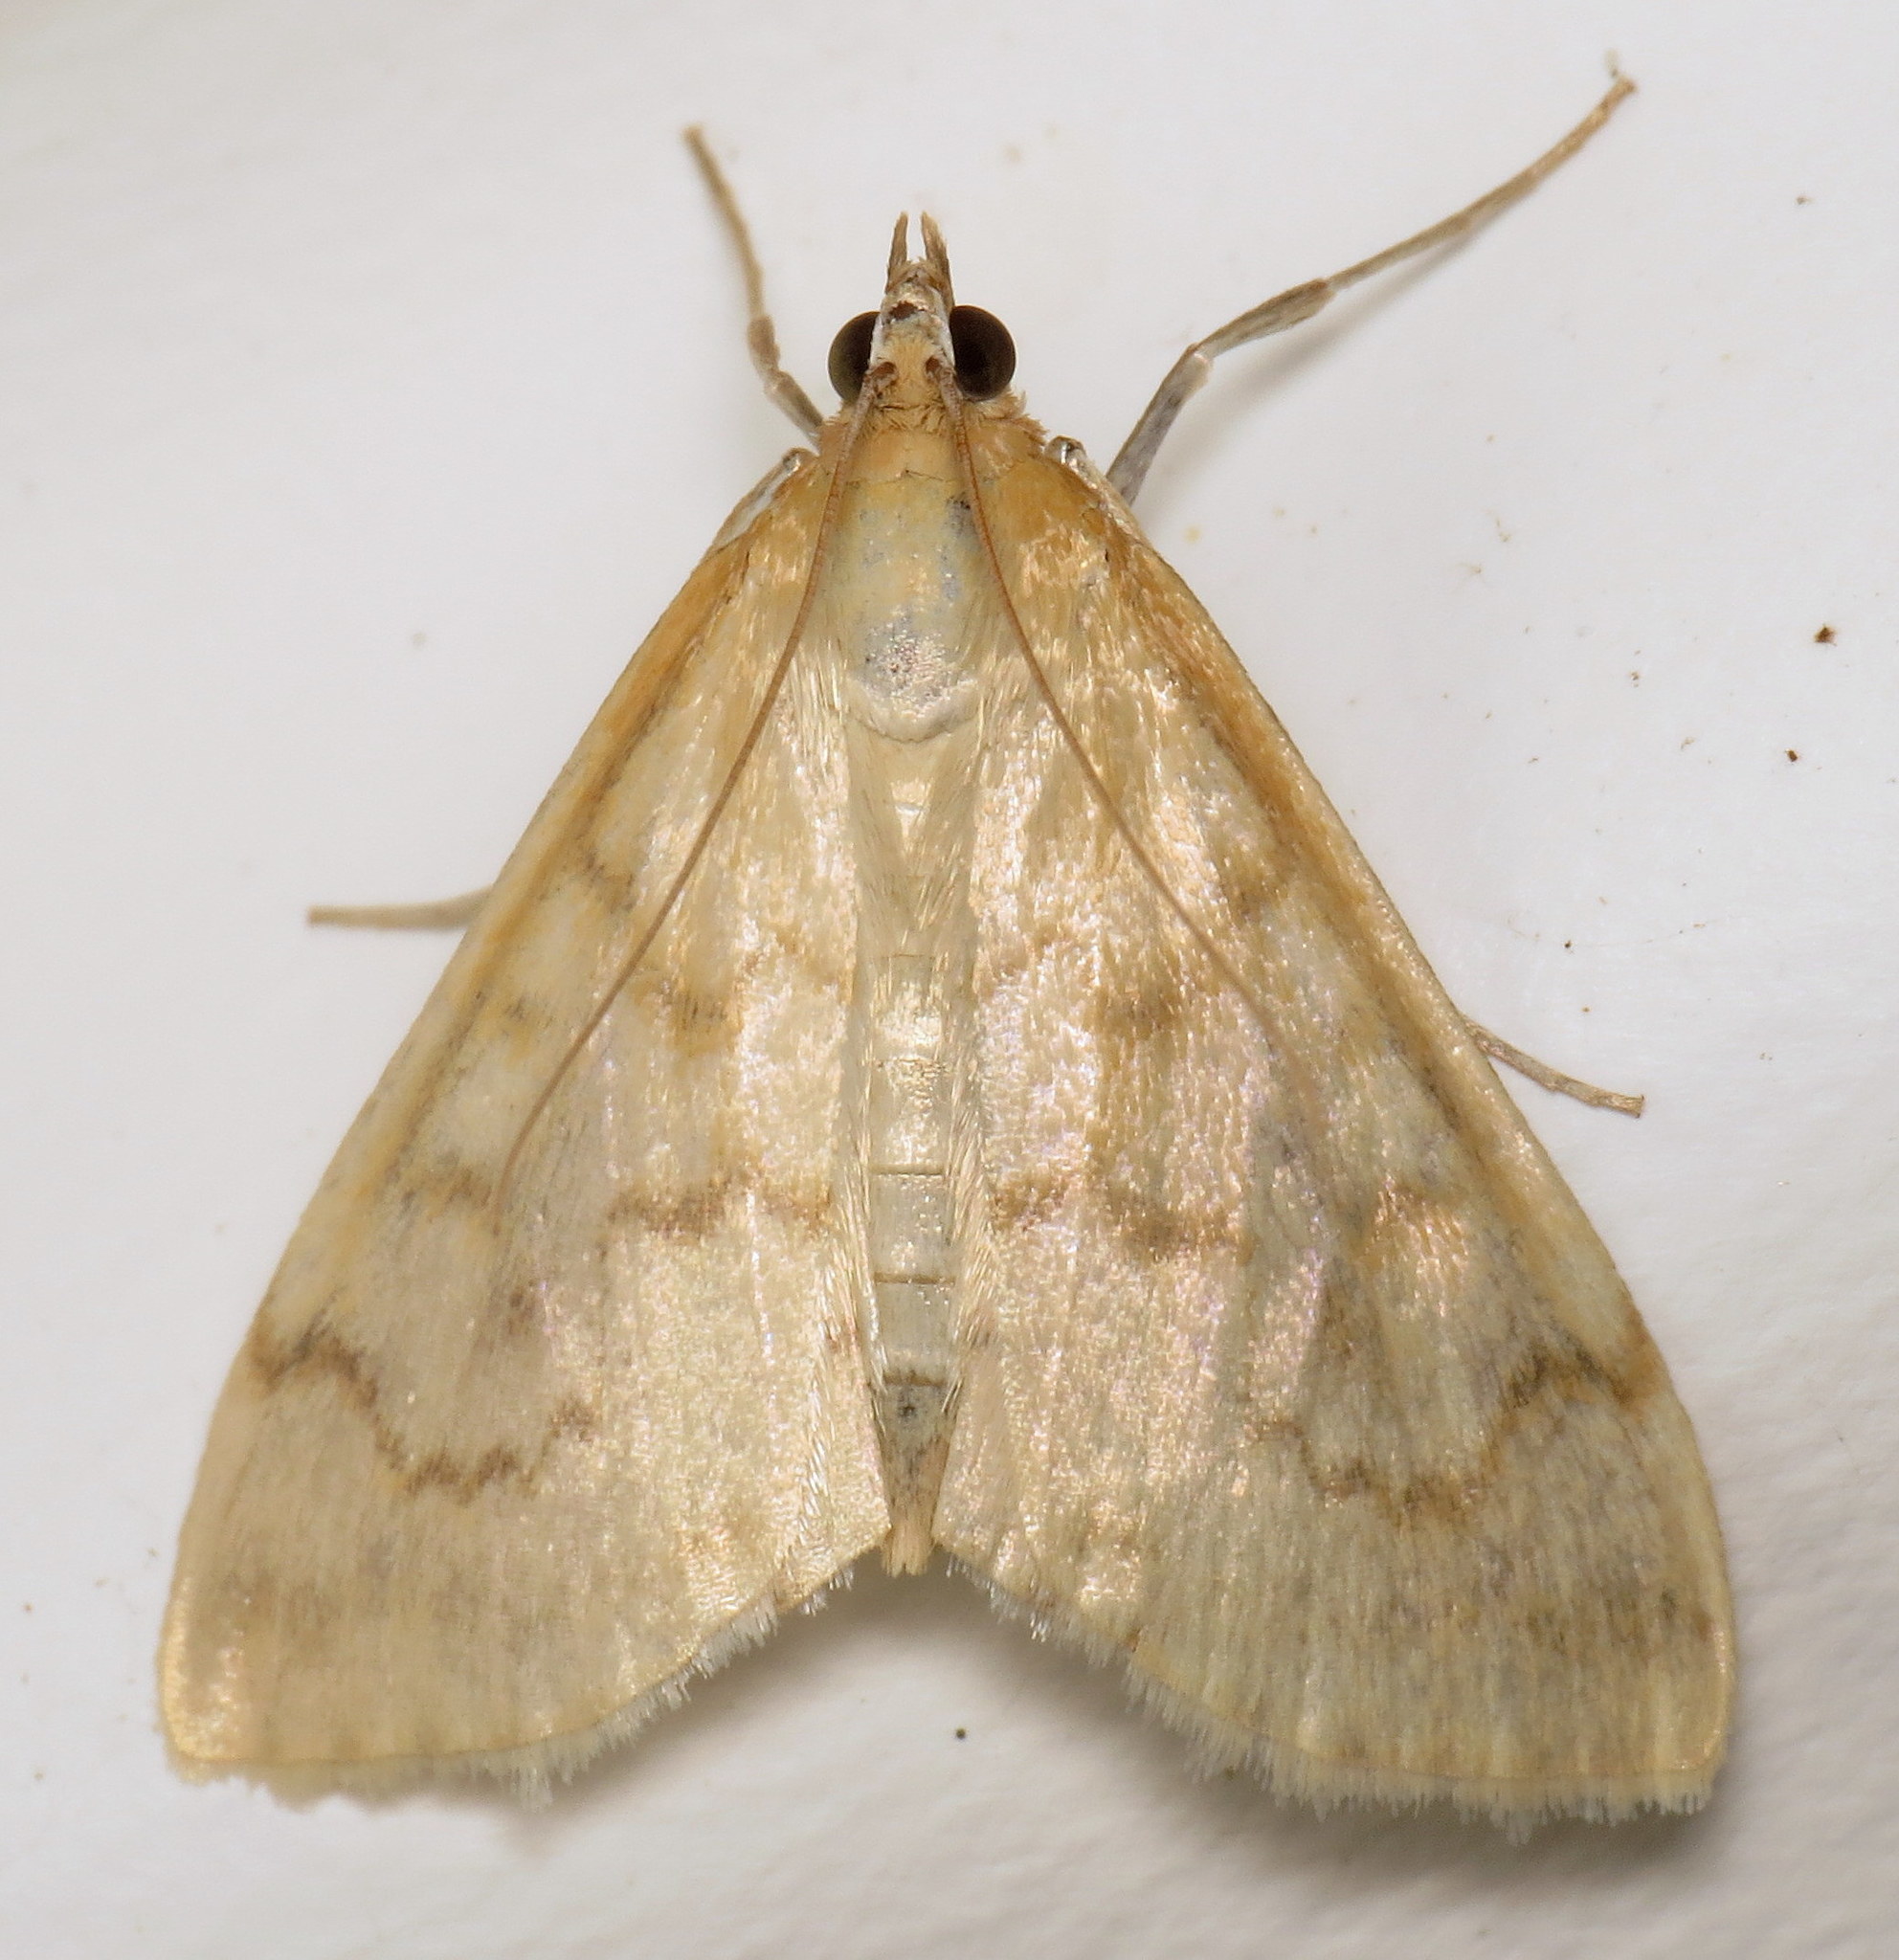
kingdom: Animalia
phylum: Arthropoda
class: Insecta
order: Lepidoptera
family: Crambidae
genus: Hahncappsia
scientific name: Hahncappsia pergilvalis
